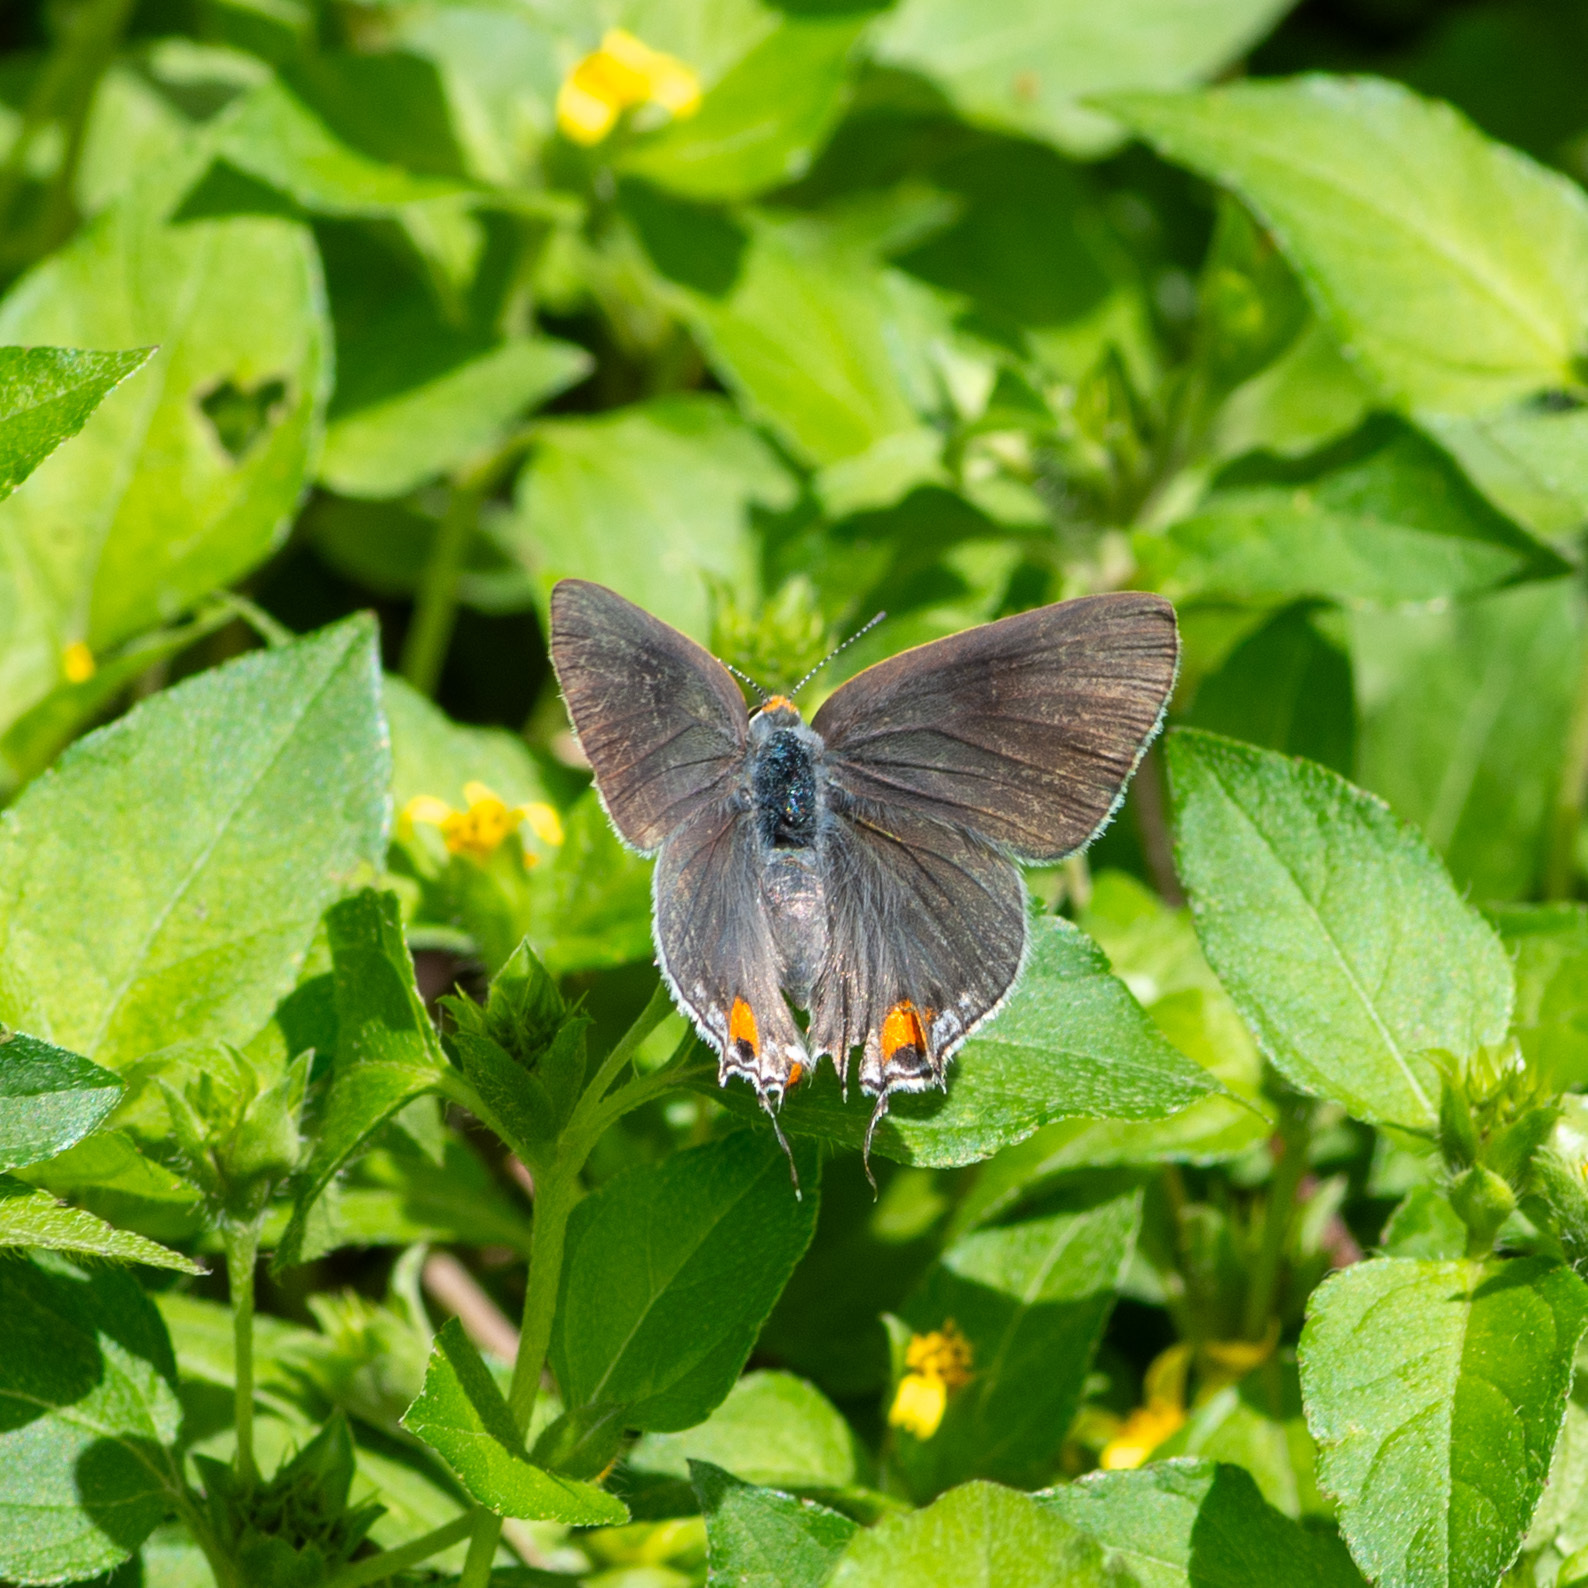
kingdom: Animalia
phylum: Arthropoda
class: Insecta
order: Lepidoptera
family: Lycaenidae
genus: Strymon
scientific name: Strymon melinus
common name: Gray hairstreak
